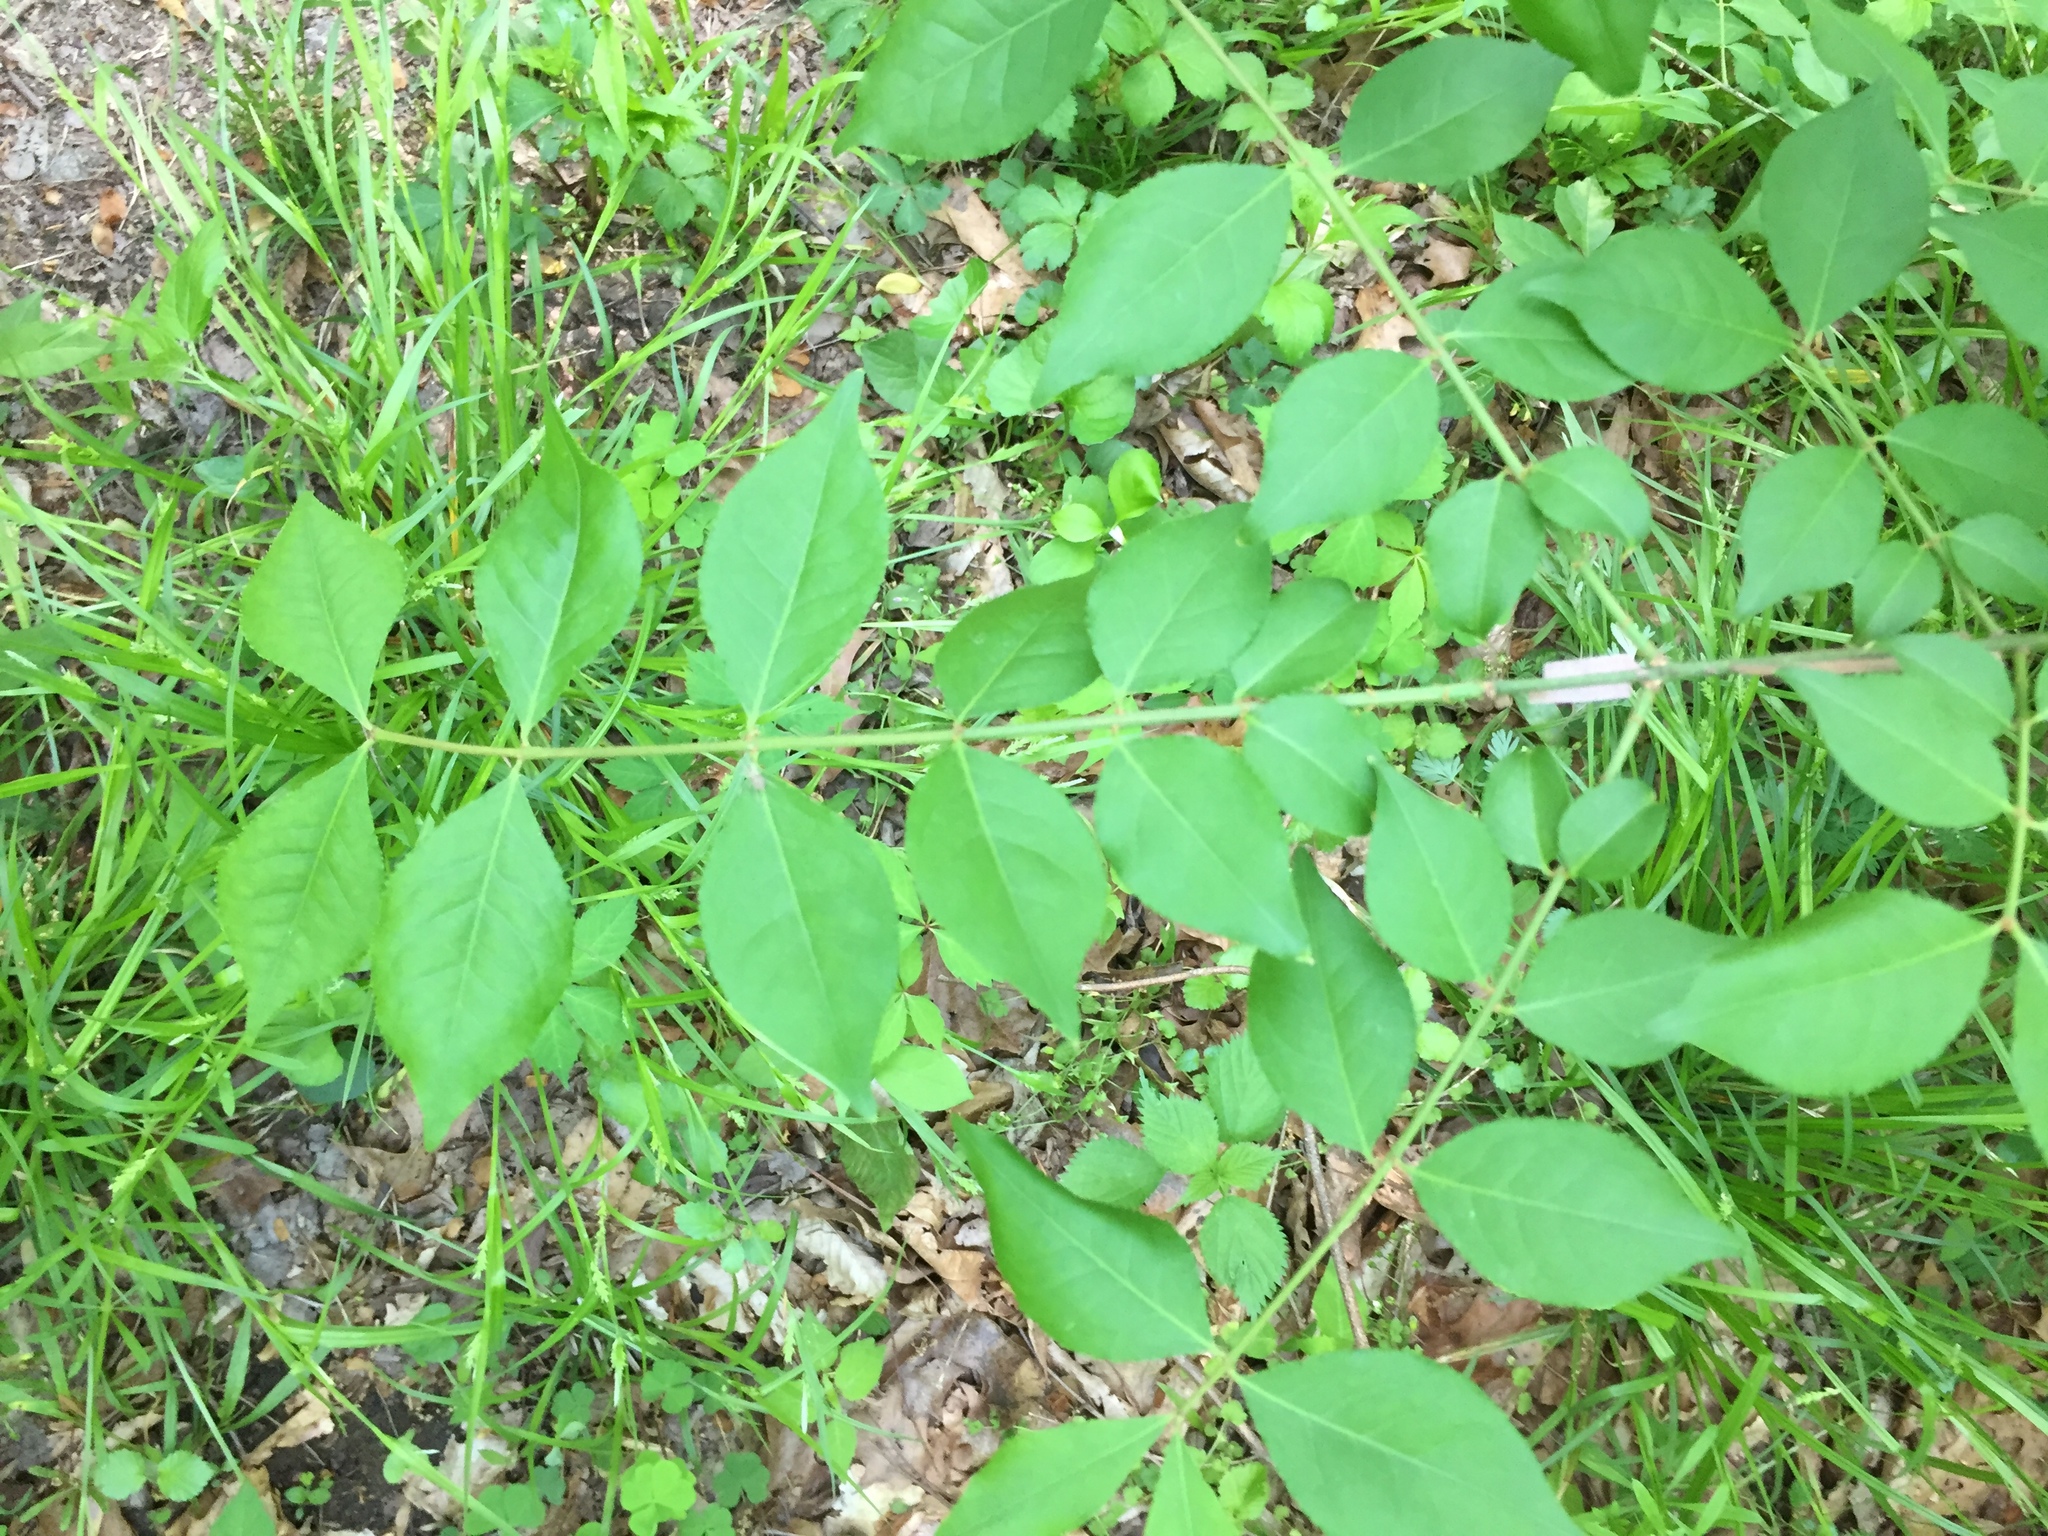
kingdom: Plantae
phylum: Tracheophyta
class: Magnoliopsida
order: Celastrales
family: Celastraceae
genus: Euonymus
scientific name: Euonymus alatus
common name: Winged euonymus
